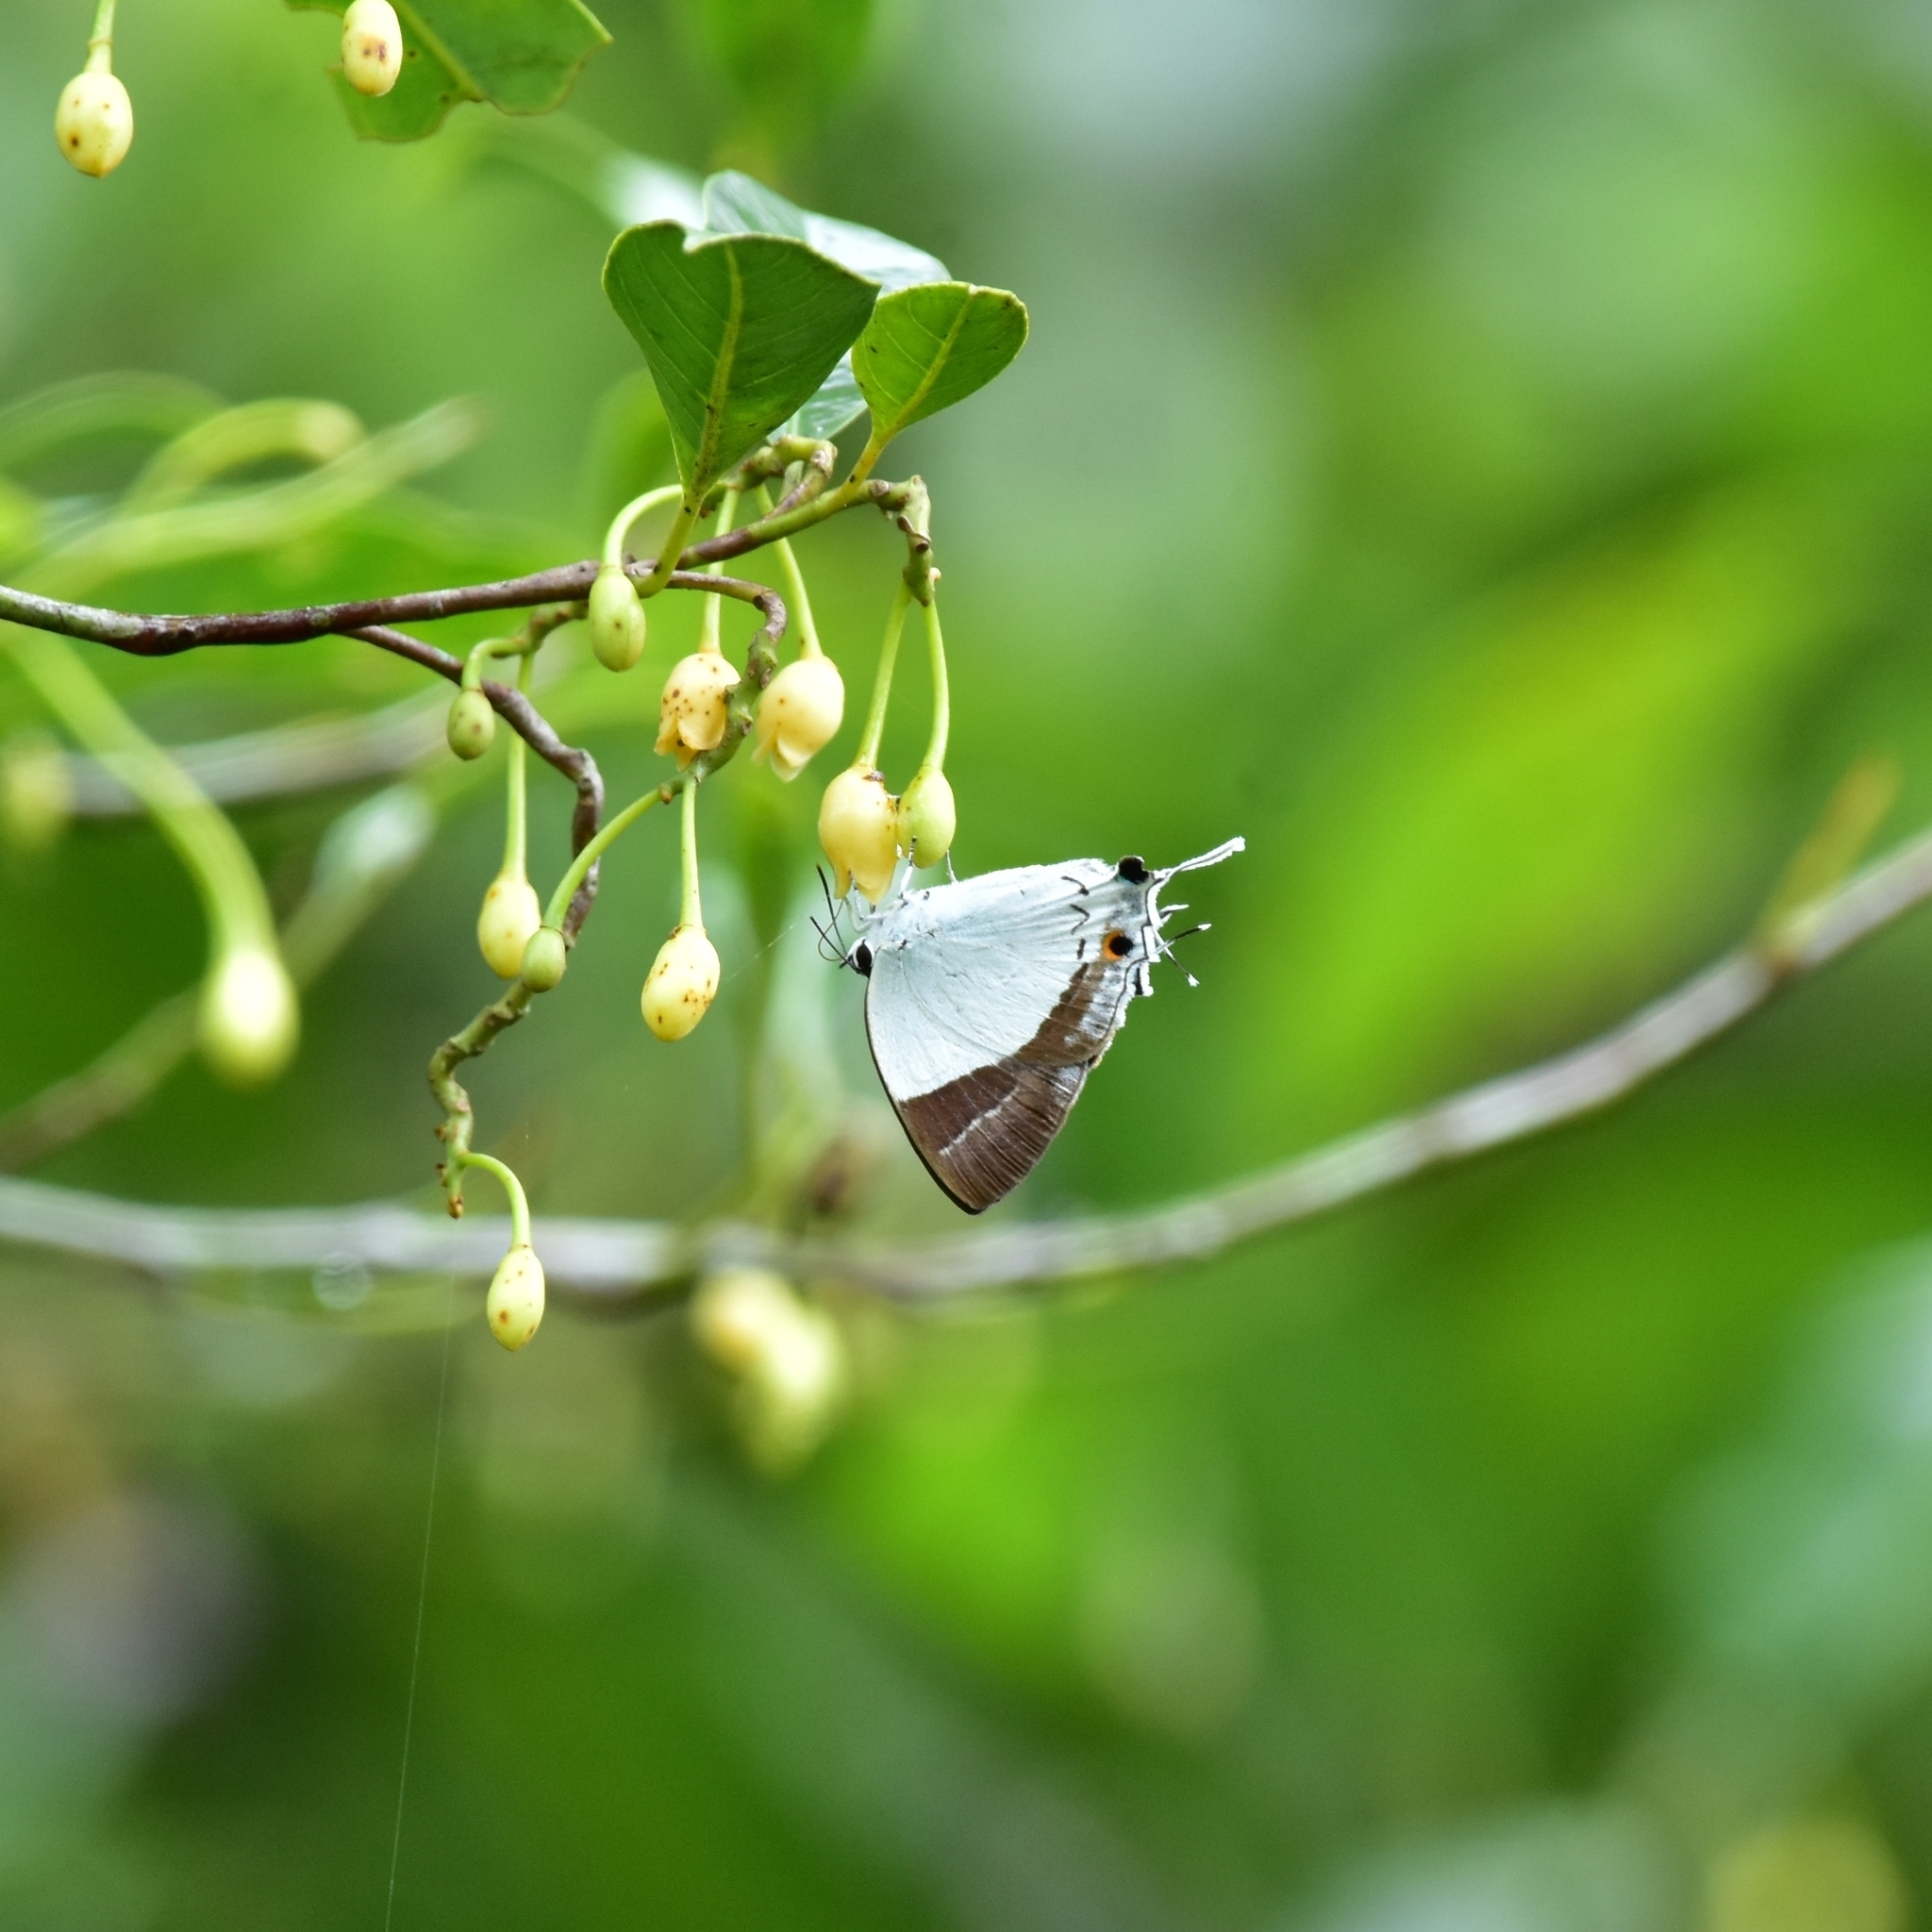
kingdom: Animalia
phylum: Arthropoda
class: Insecta
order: Lepidoptera
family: Hesperiidae
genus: Rachana
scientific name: Rachana jalindra
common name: Banded royal
